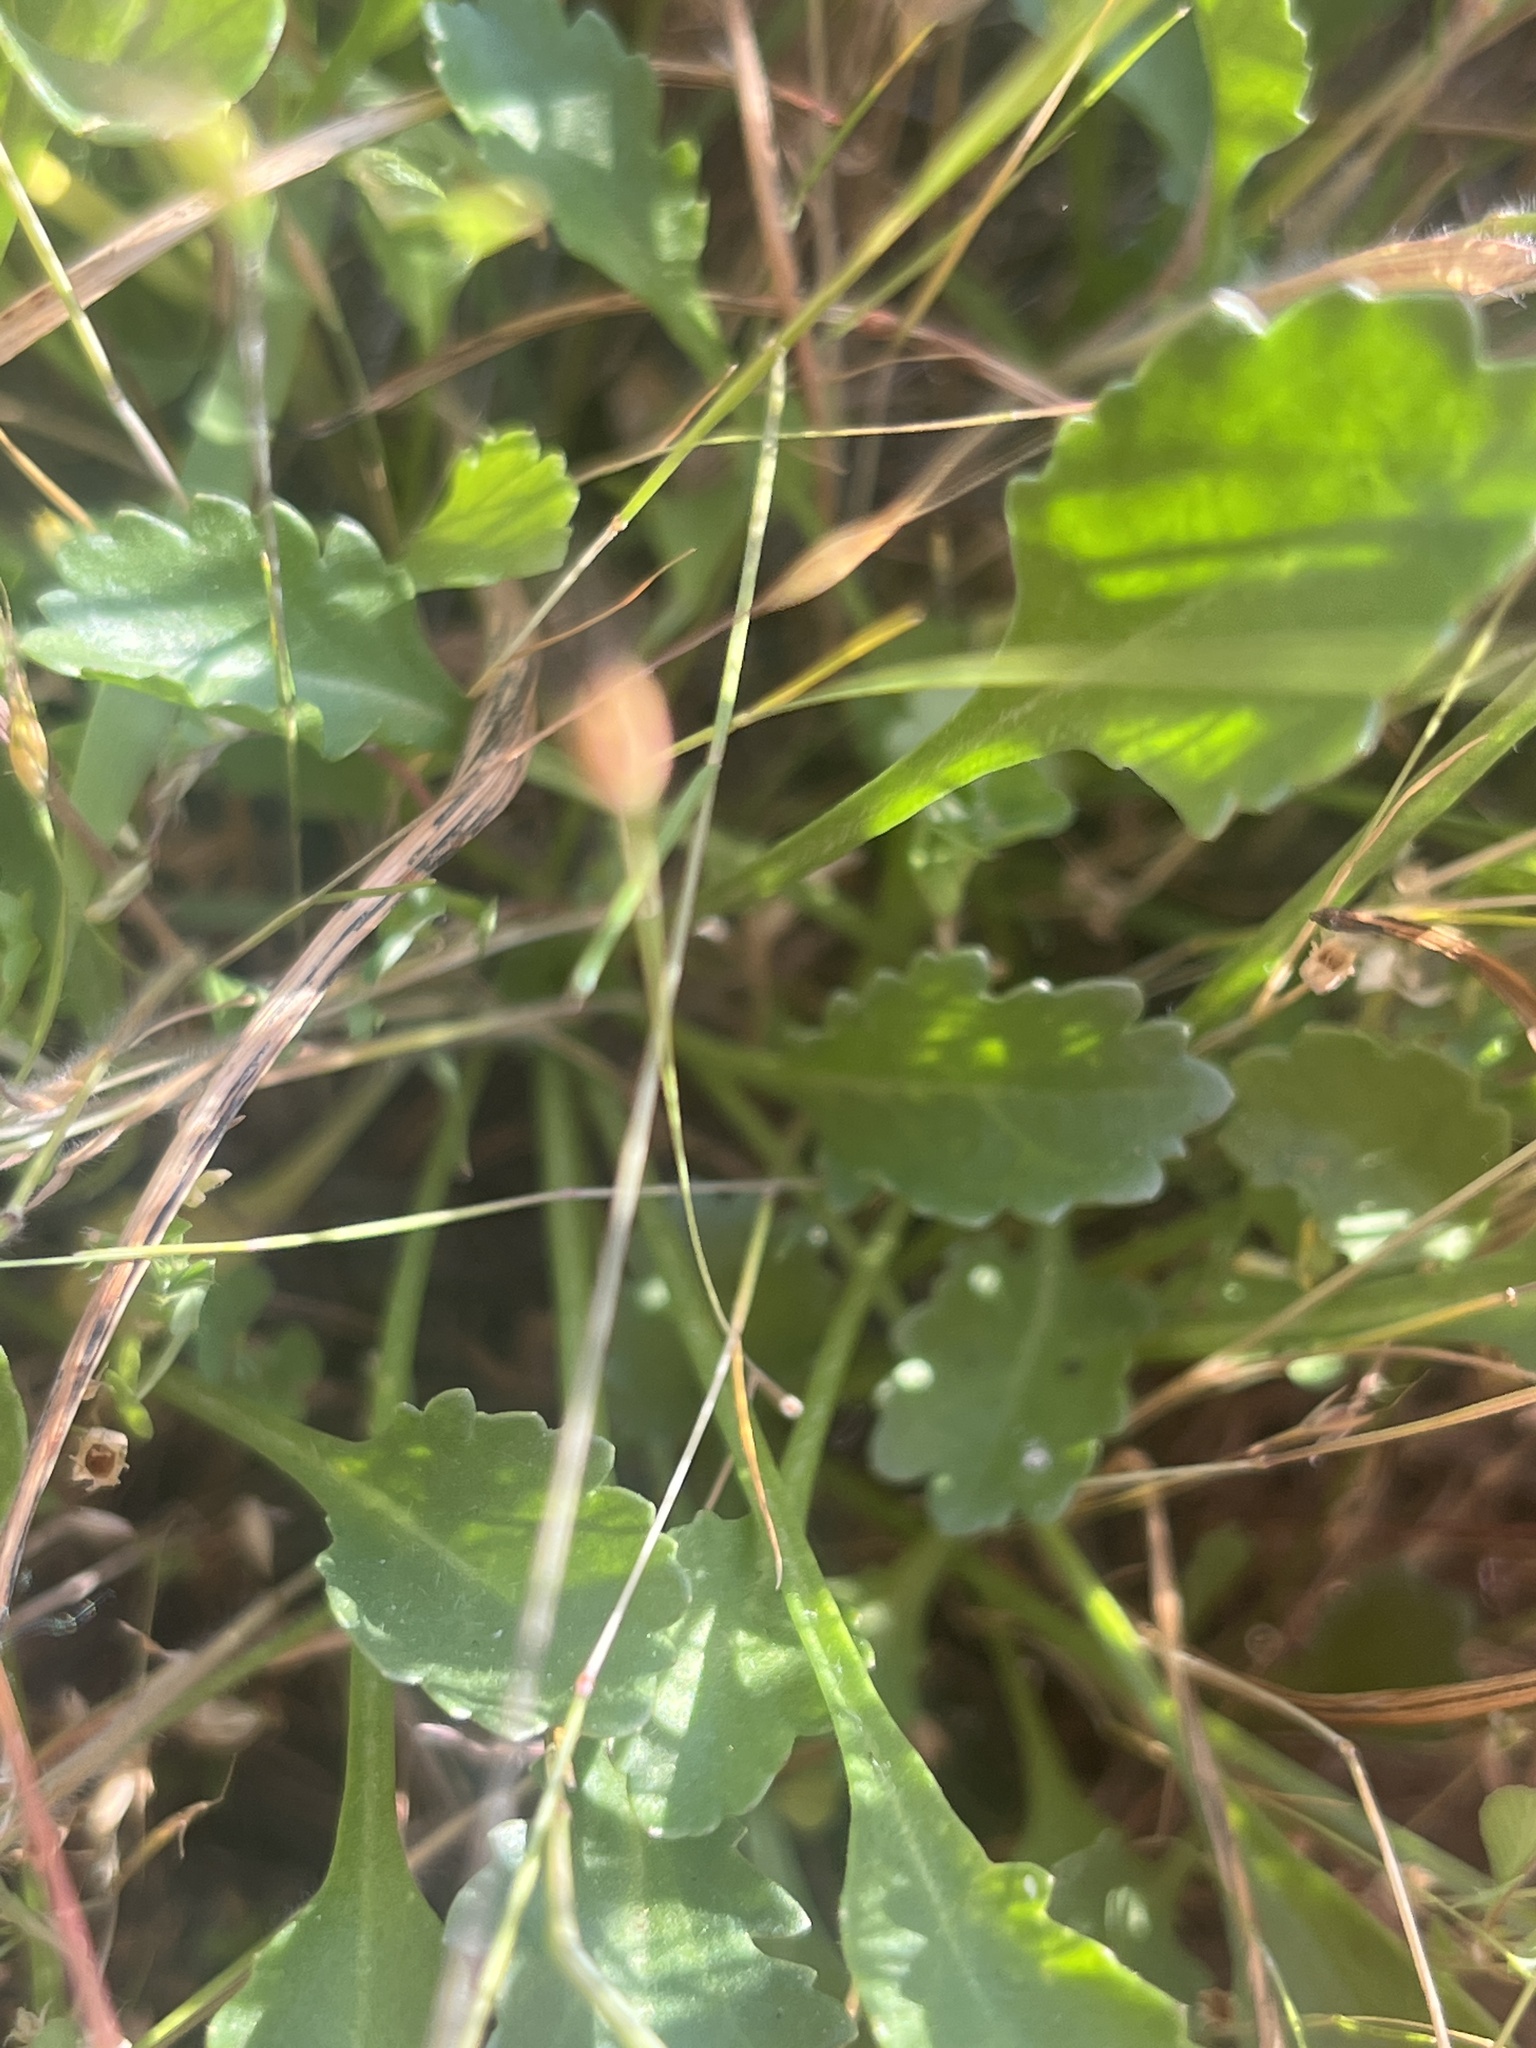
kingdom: Plantae
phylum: Tracheophyta
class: Magnoliopsida
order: Asterales
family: Asteraceae
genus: Leucanthemum
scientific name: Leucanthemum vulgare
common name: Oxeye daisy
